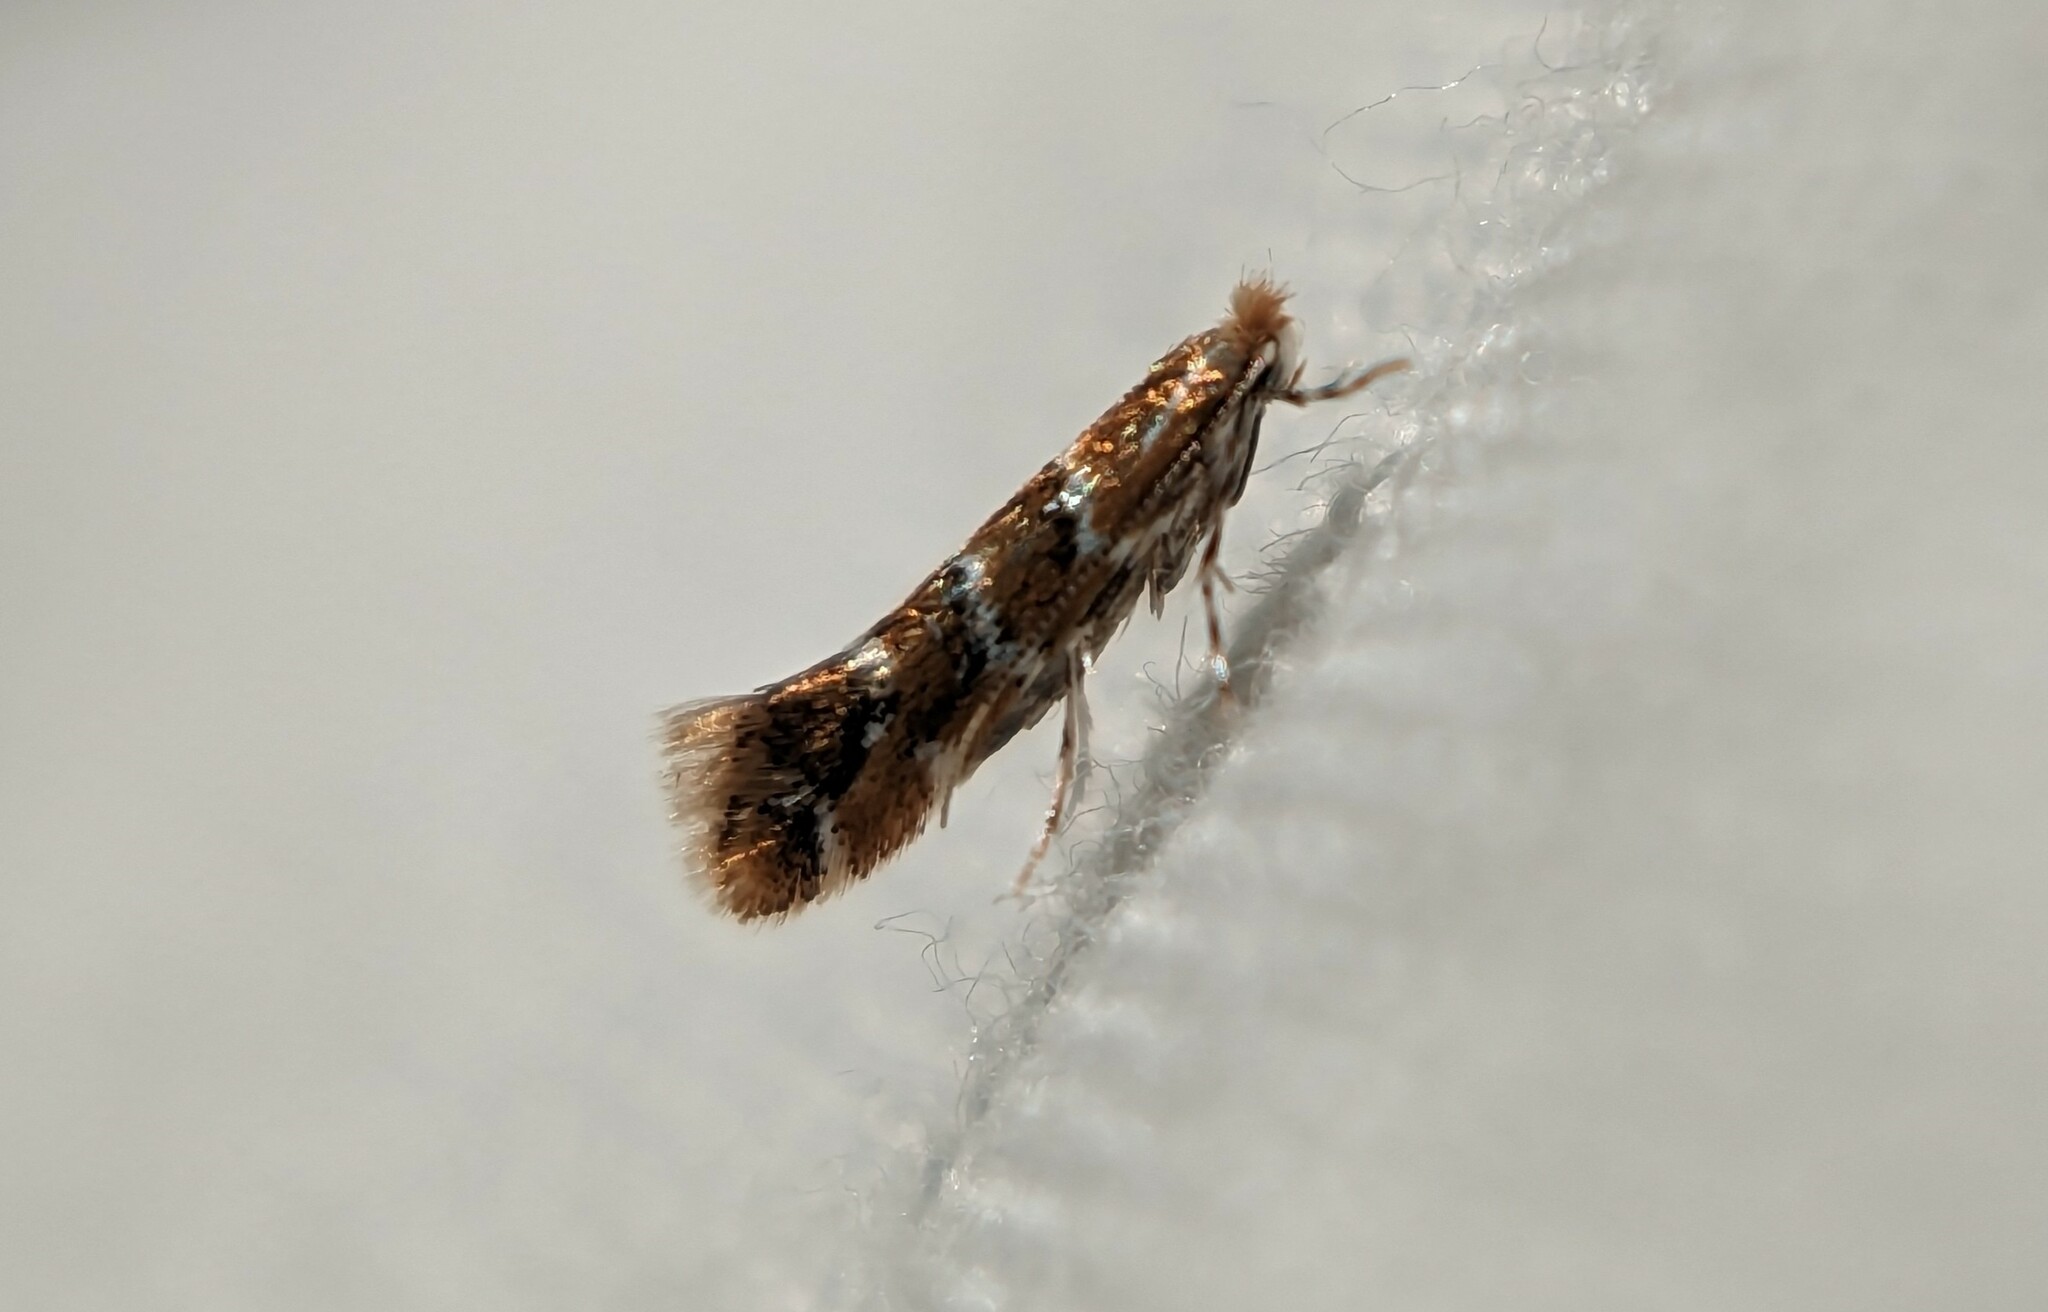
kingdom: Animalia
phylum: Arthropoda
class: Insecta
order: Lepidoptera
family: Gracillariidae
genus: Cameraria
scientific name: Cameraria ohridella
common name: Horse-chestnut leaf-miner
